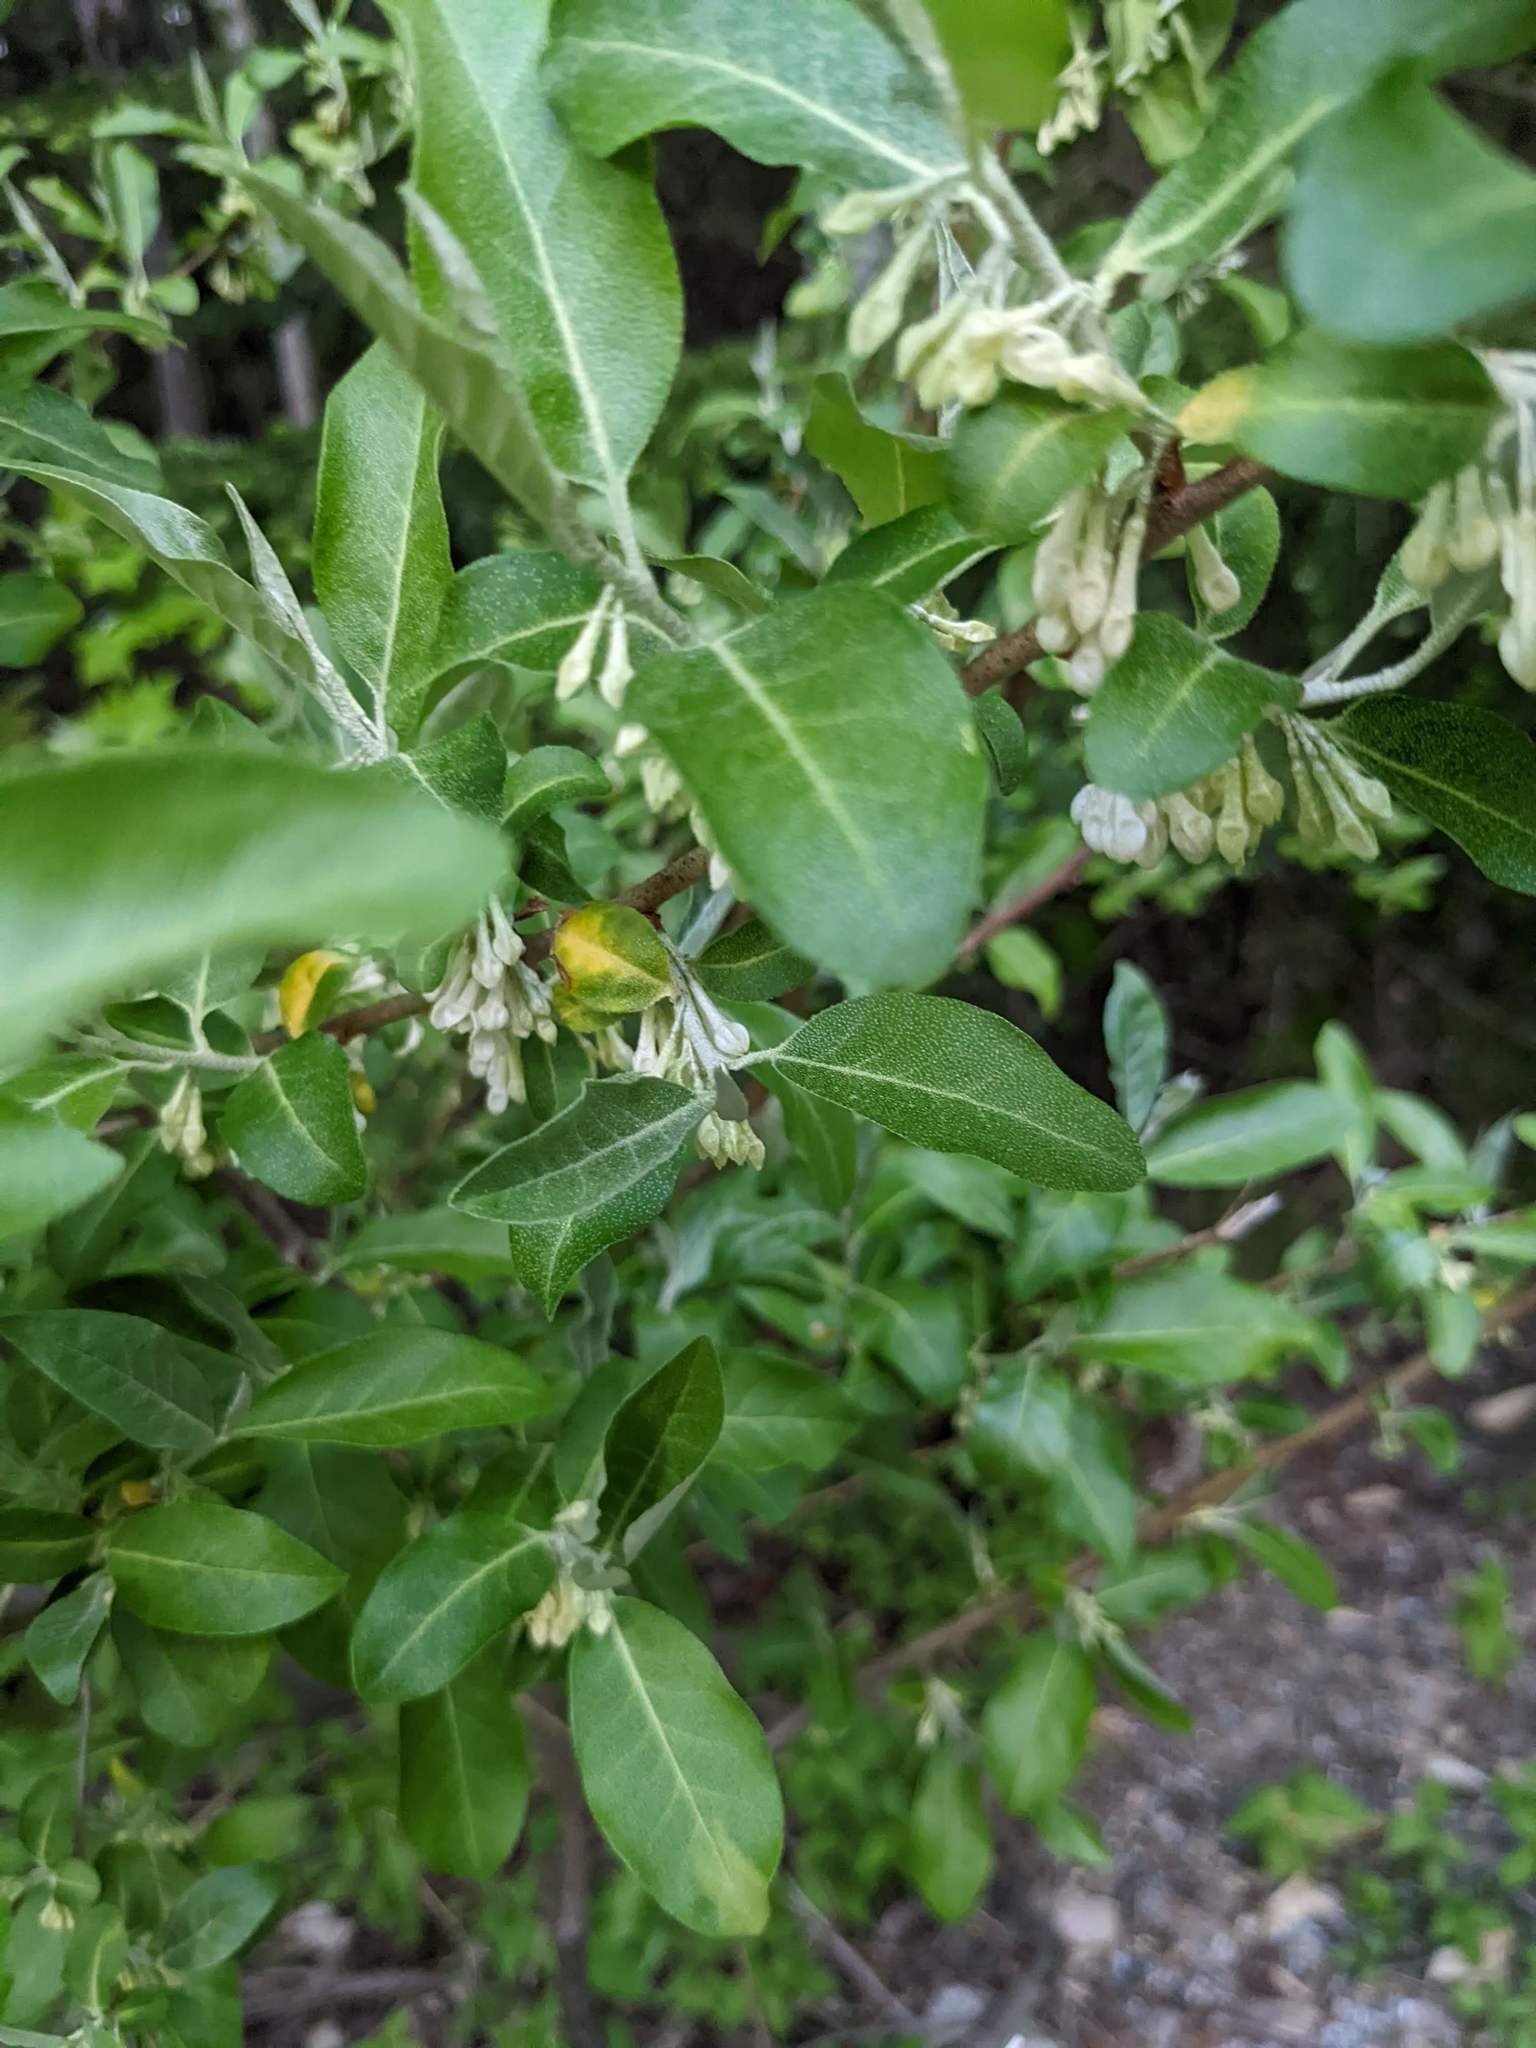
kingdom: Plantae
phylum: Tracheophyta
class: Magnoliopsida
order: Rosales
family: Elaeagnaceae
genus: Elaeagnus
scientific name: Elaeagnus umbellata
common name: Autumn olive
